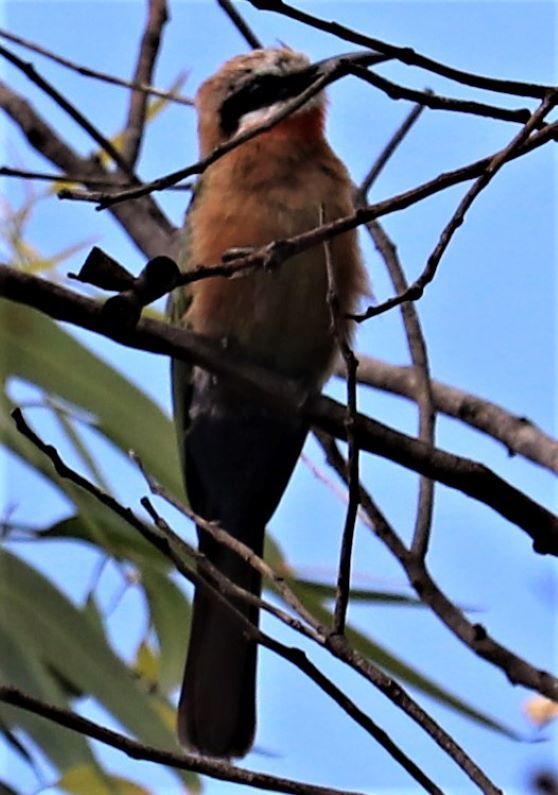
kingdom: Animalia
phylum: Chordata
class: Aves
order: Coraciiformes
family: Meropidae
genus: Merops
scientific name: Merops bullockoides
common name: White-fronted bee-eater
